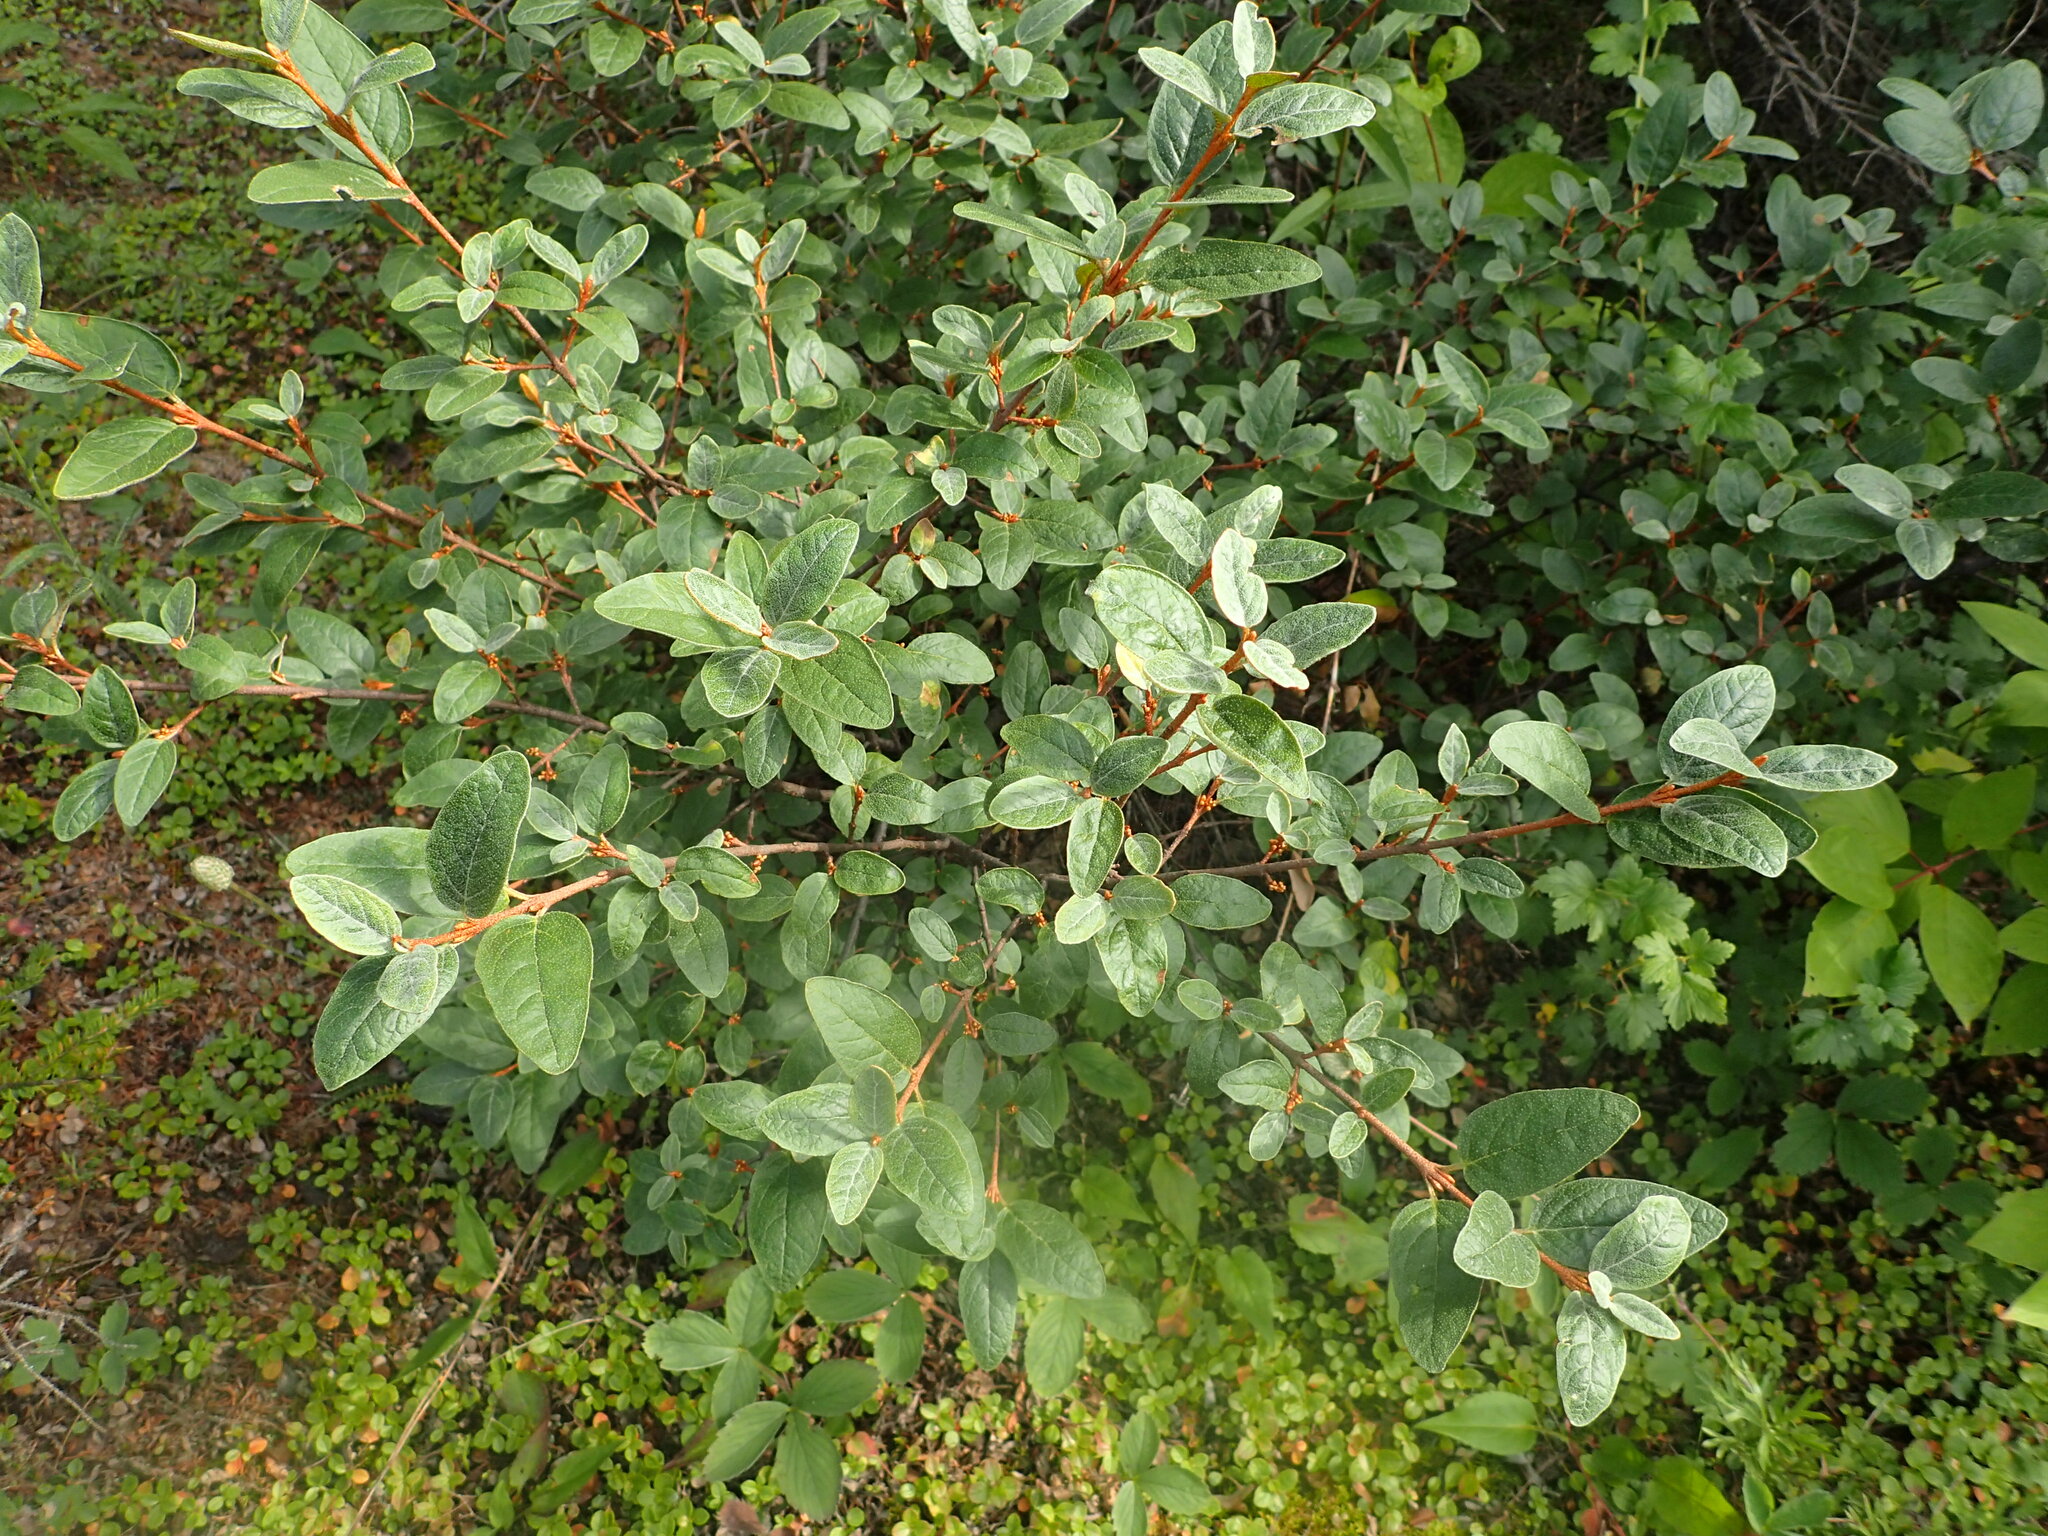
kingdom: Plantae
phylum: Tracheophyta
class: Magnoliopsida
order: Rosales
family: Elaeagnaceae
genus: Shepherdia
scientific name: Shepherdia canadensis
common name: Soapberry
